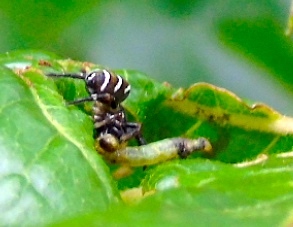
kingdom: Animalia
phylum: Arthropoda
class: Arachnida
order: Araneae
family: Salticidae
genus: Sassacus
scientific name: Sassacus
